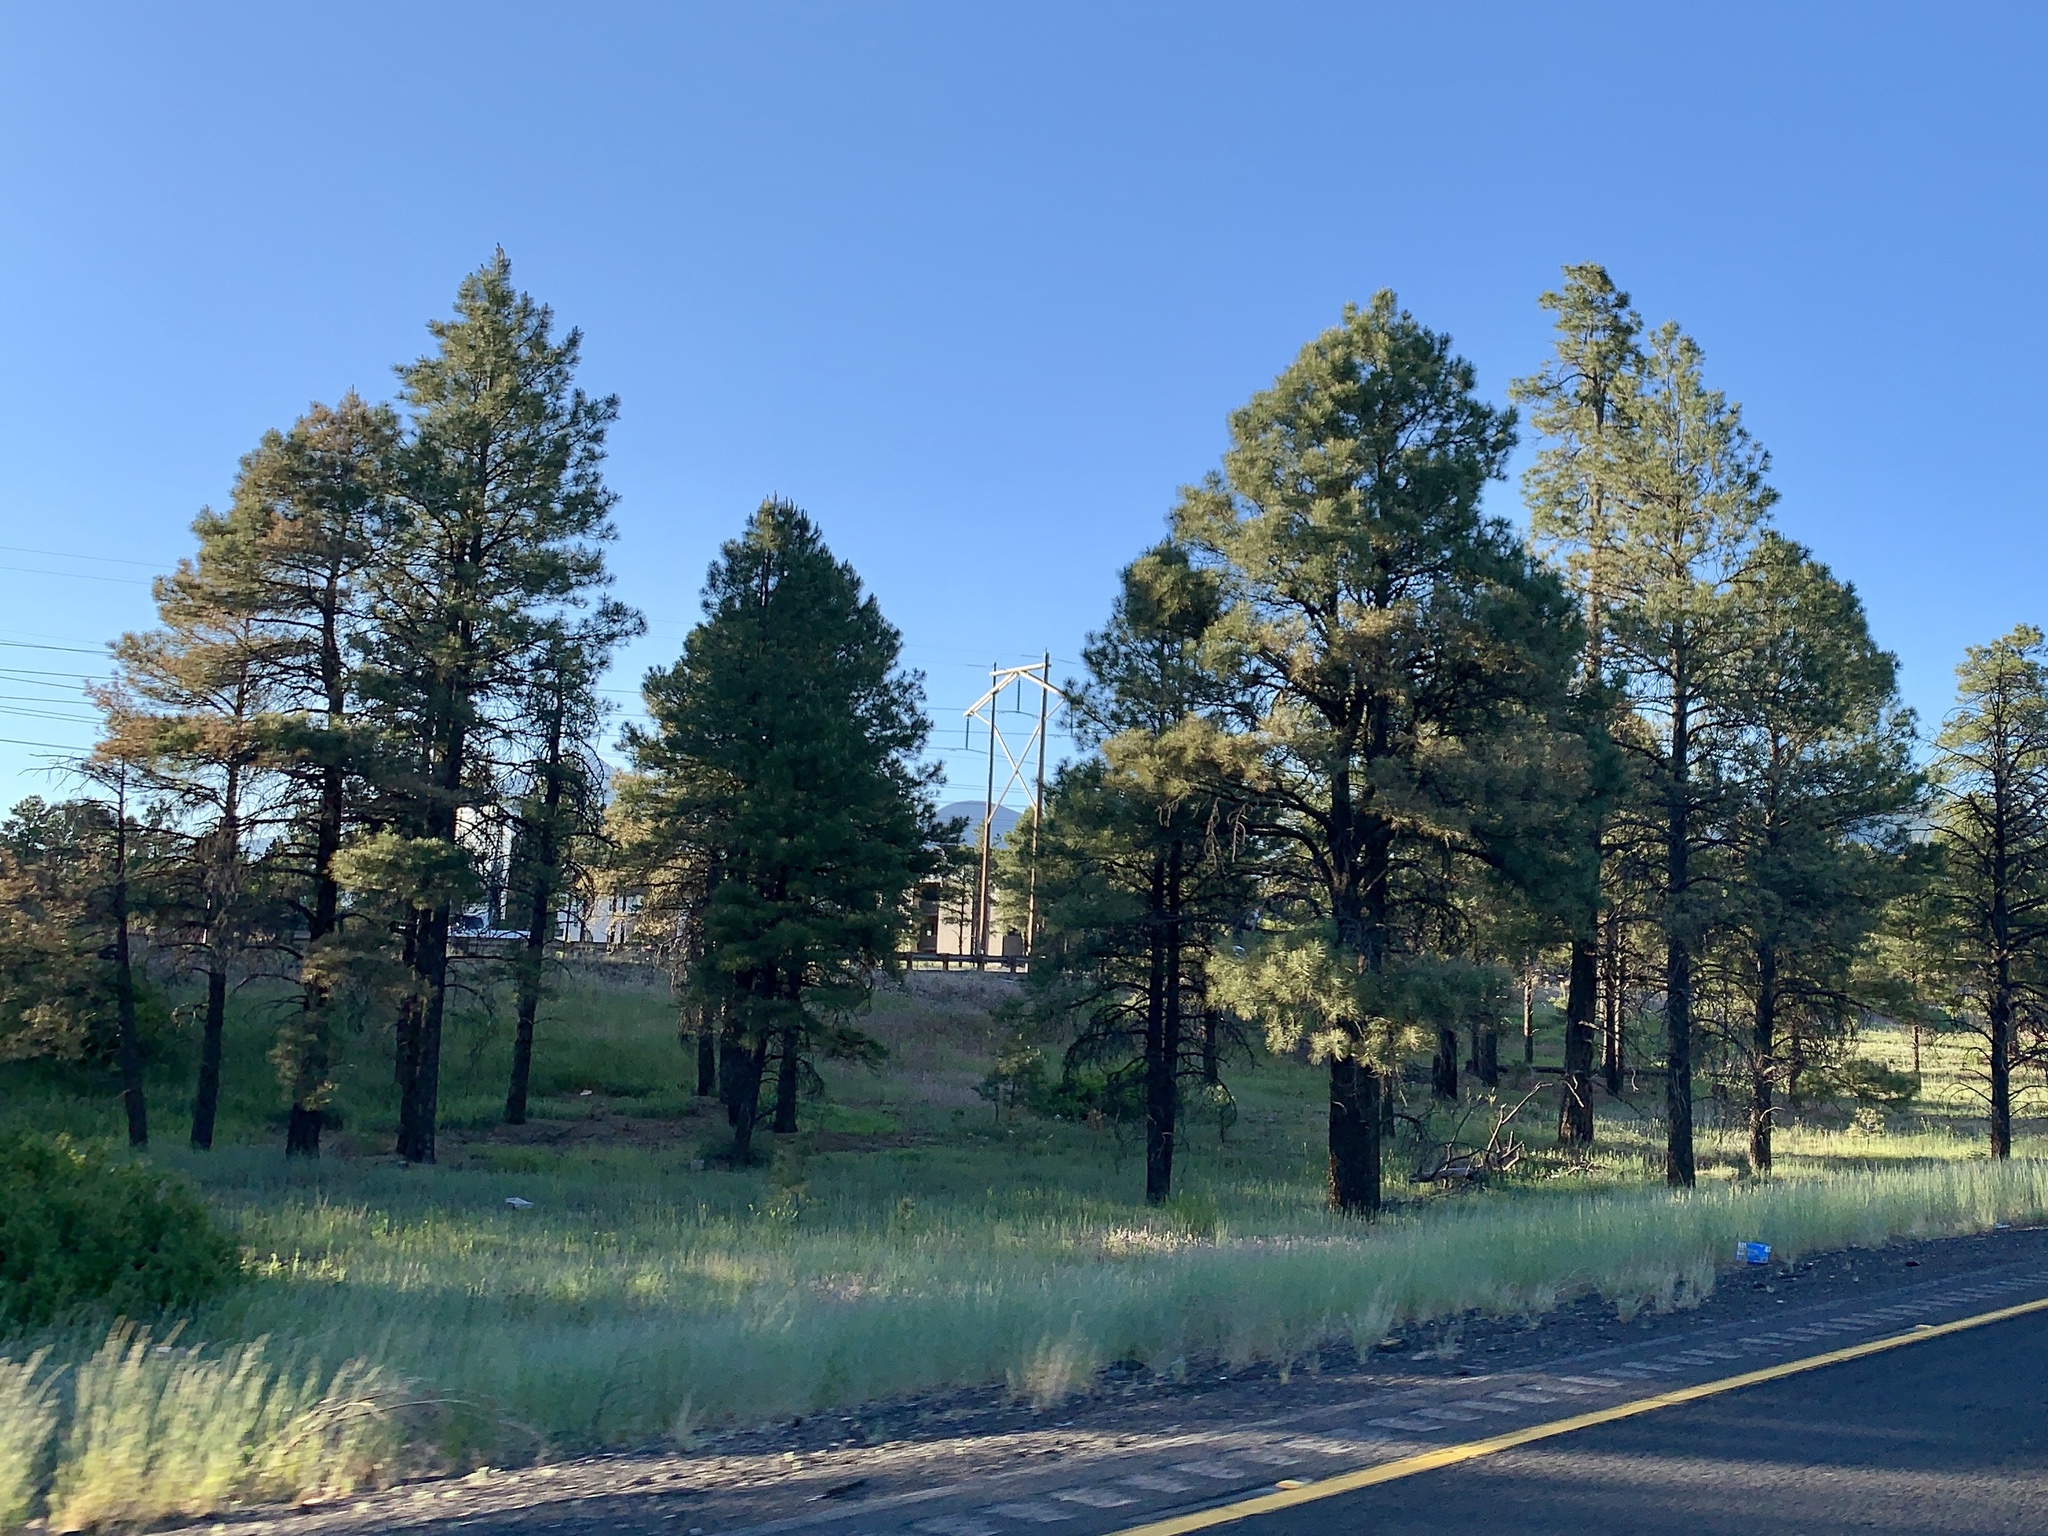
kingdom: Plantae
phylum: Tracheophyta
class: Pinopsida
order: Pinales
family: Pinaceae
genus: Pinus
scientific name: Pinus ponderosa
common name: Western yellow-pine
